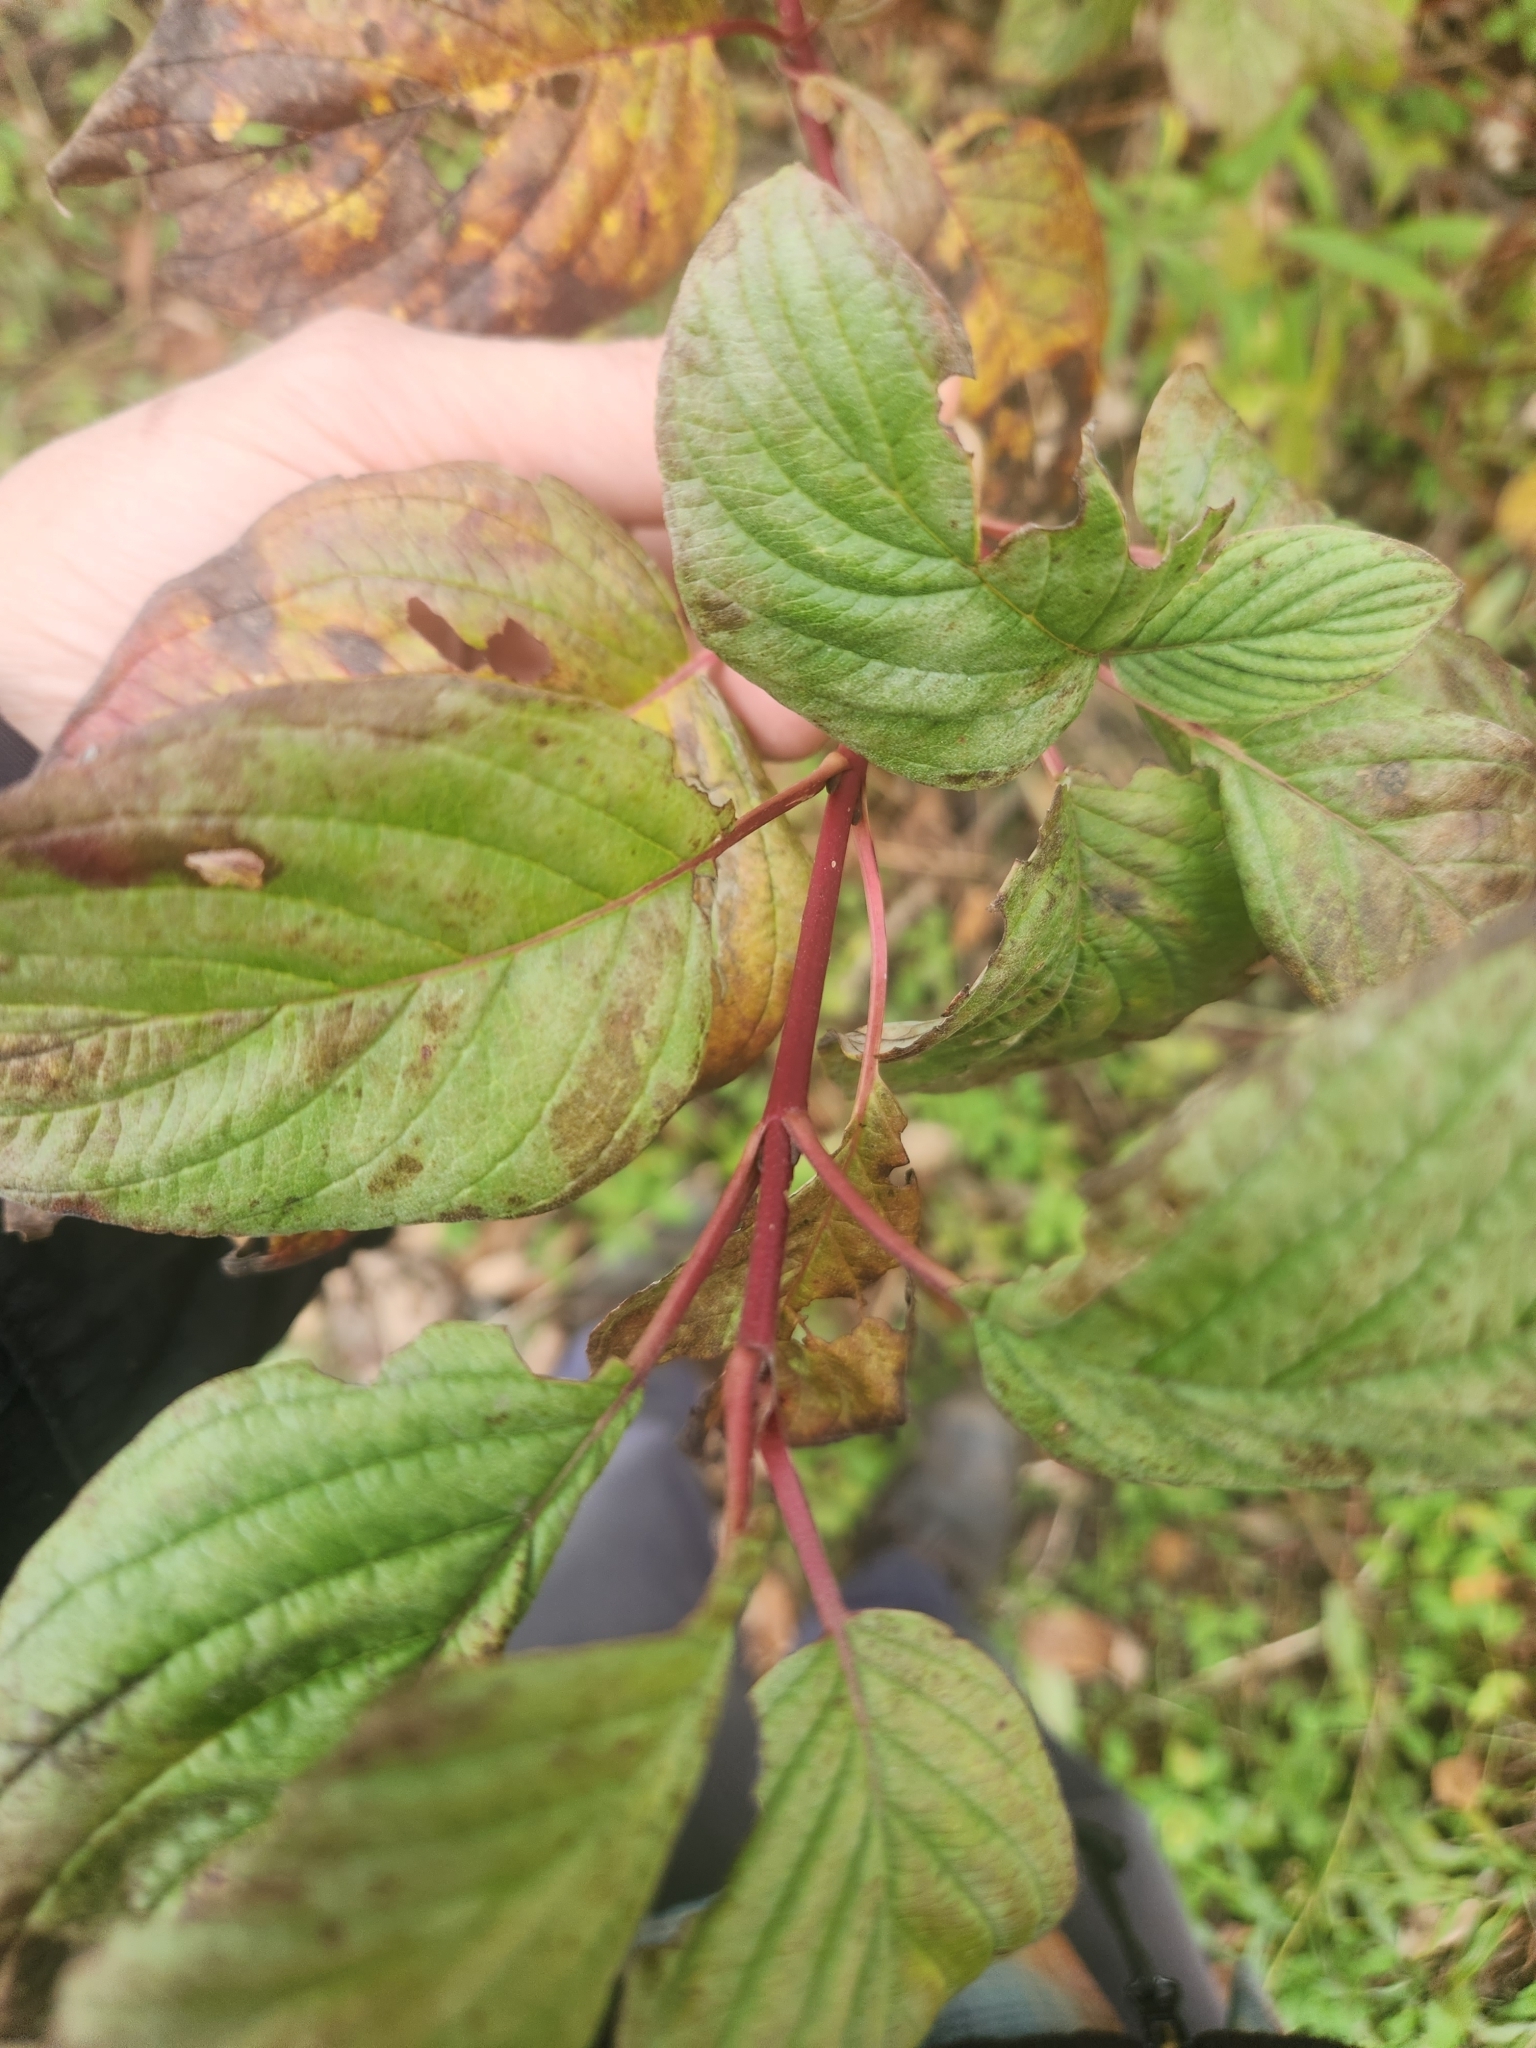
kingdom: Plantae
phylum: Tracheophyta
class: Magnoliopsida
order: Cornales
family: Cornaceae
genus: Cornus
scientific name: Cornus sericea
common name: Red-osier dogwood
